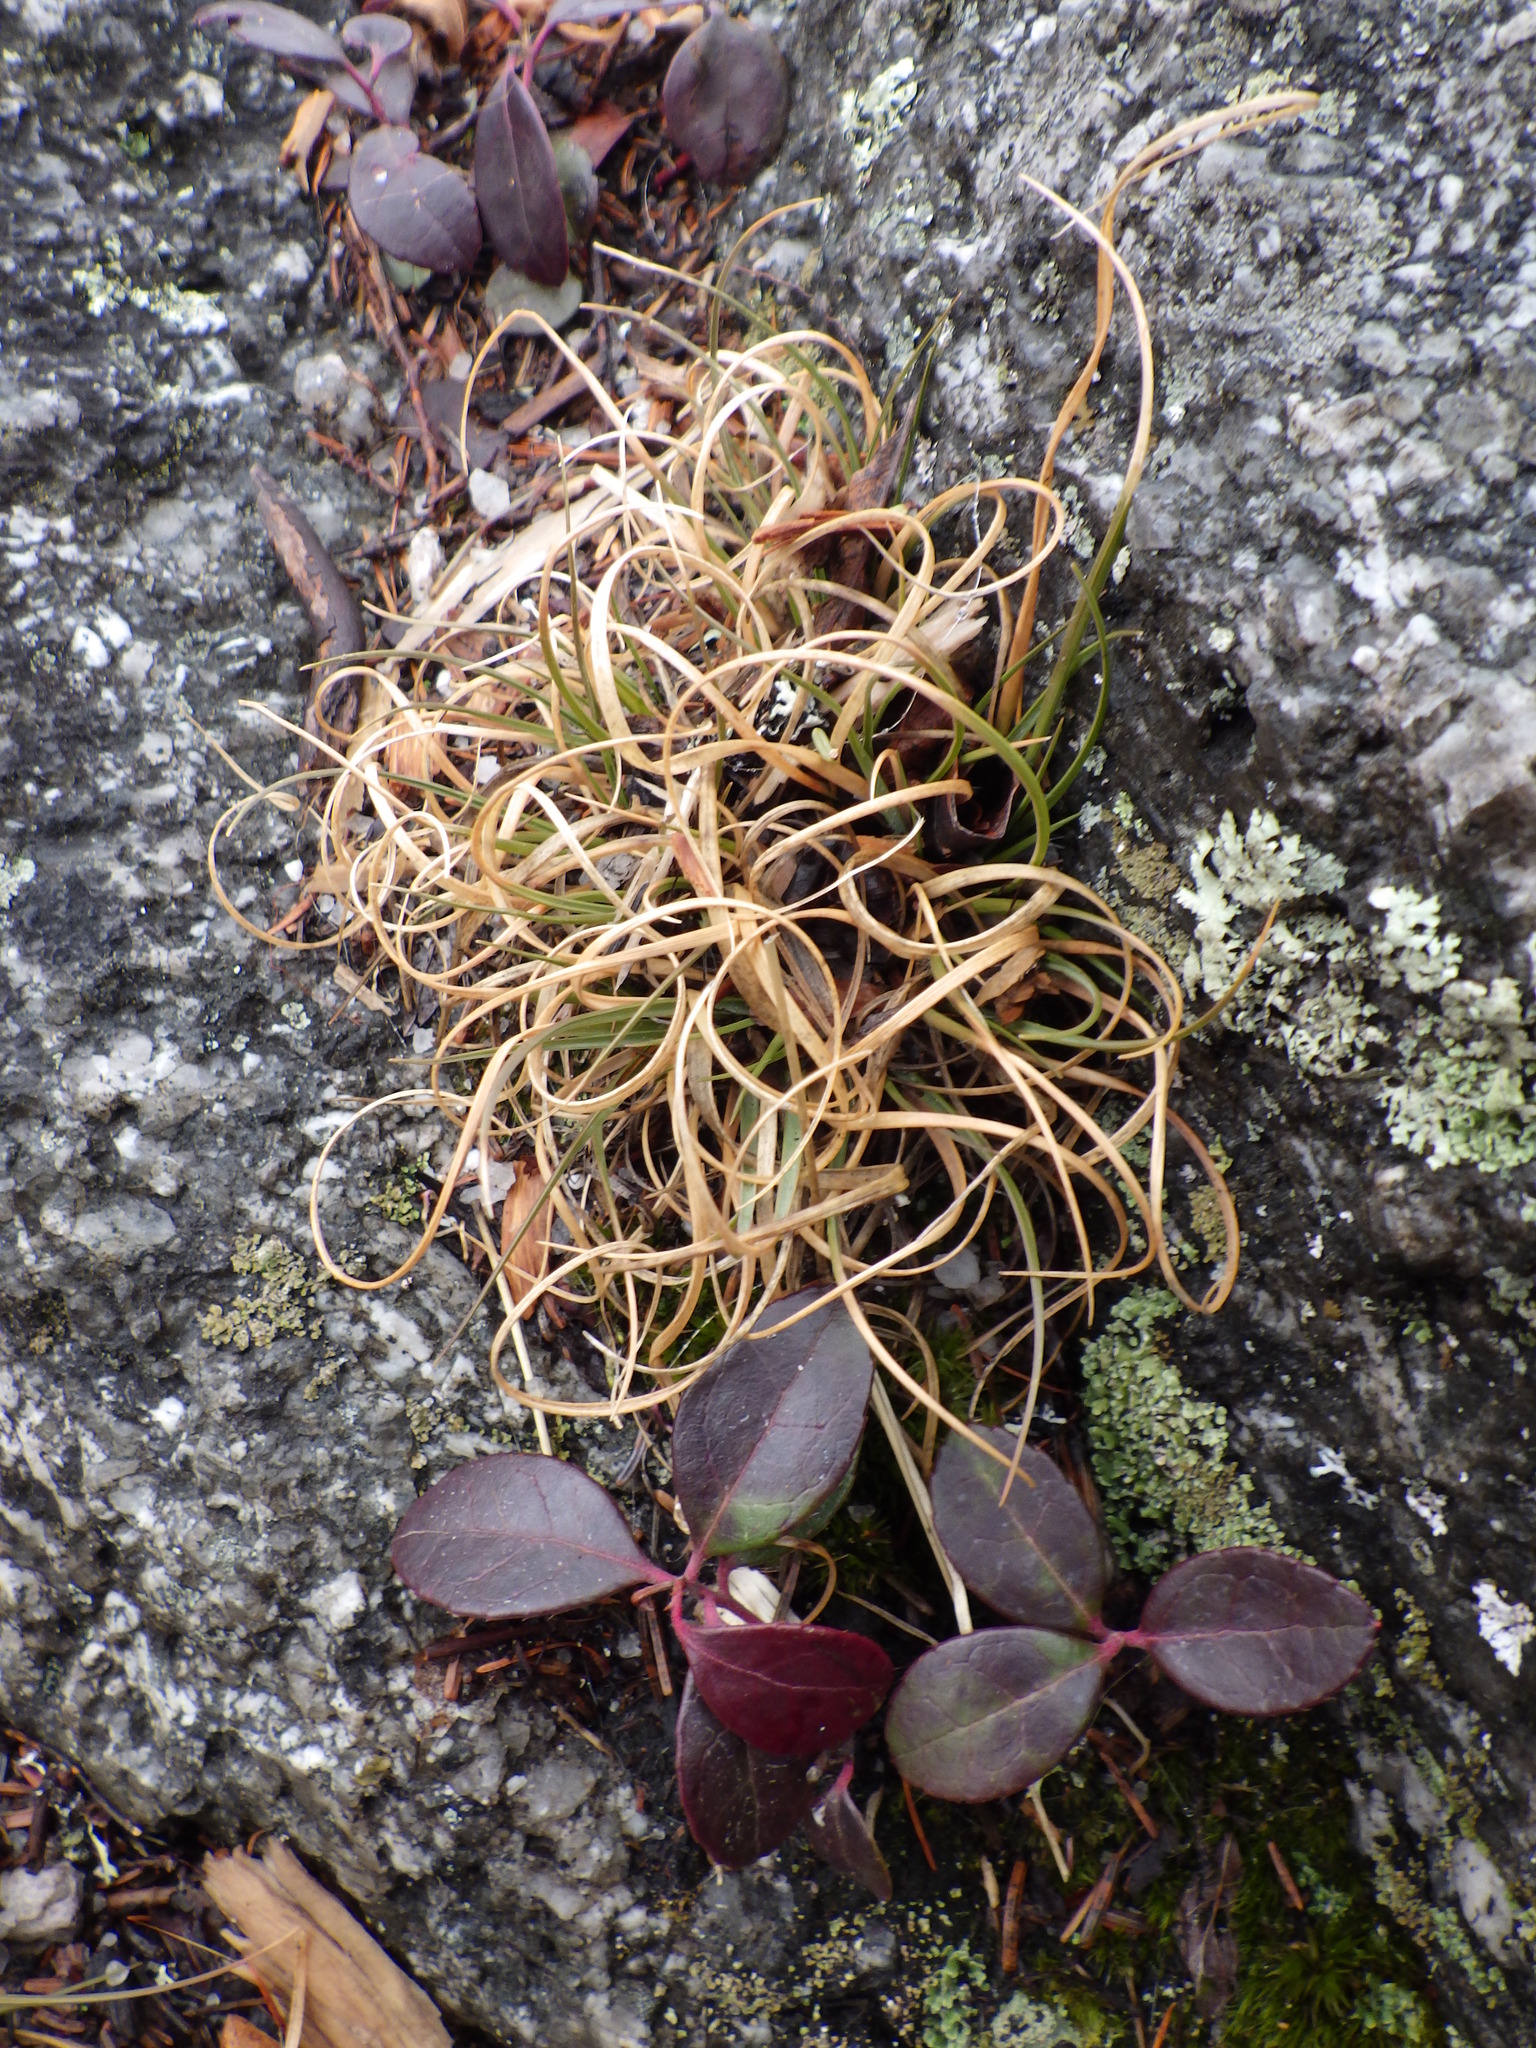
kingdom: Plantae
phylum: Tracheophyta
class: Liliopsida
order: Poales
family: Poaceae
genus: Danthonia
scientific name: Danthonia spicata
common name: Common wild oatgrass
